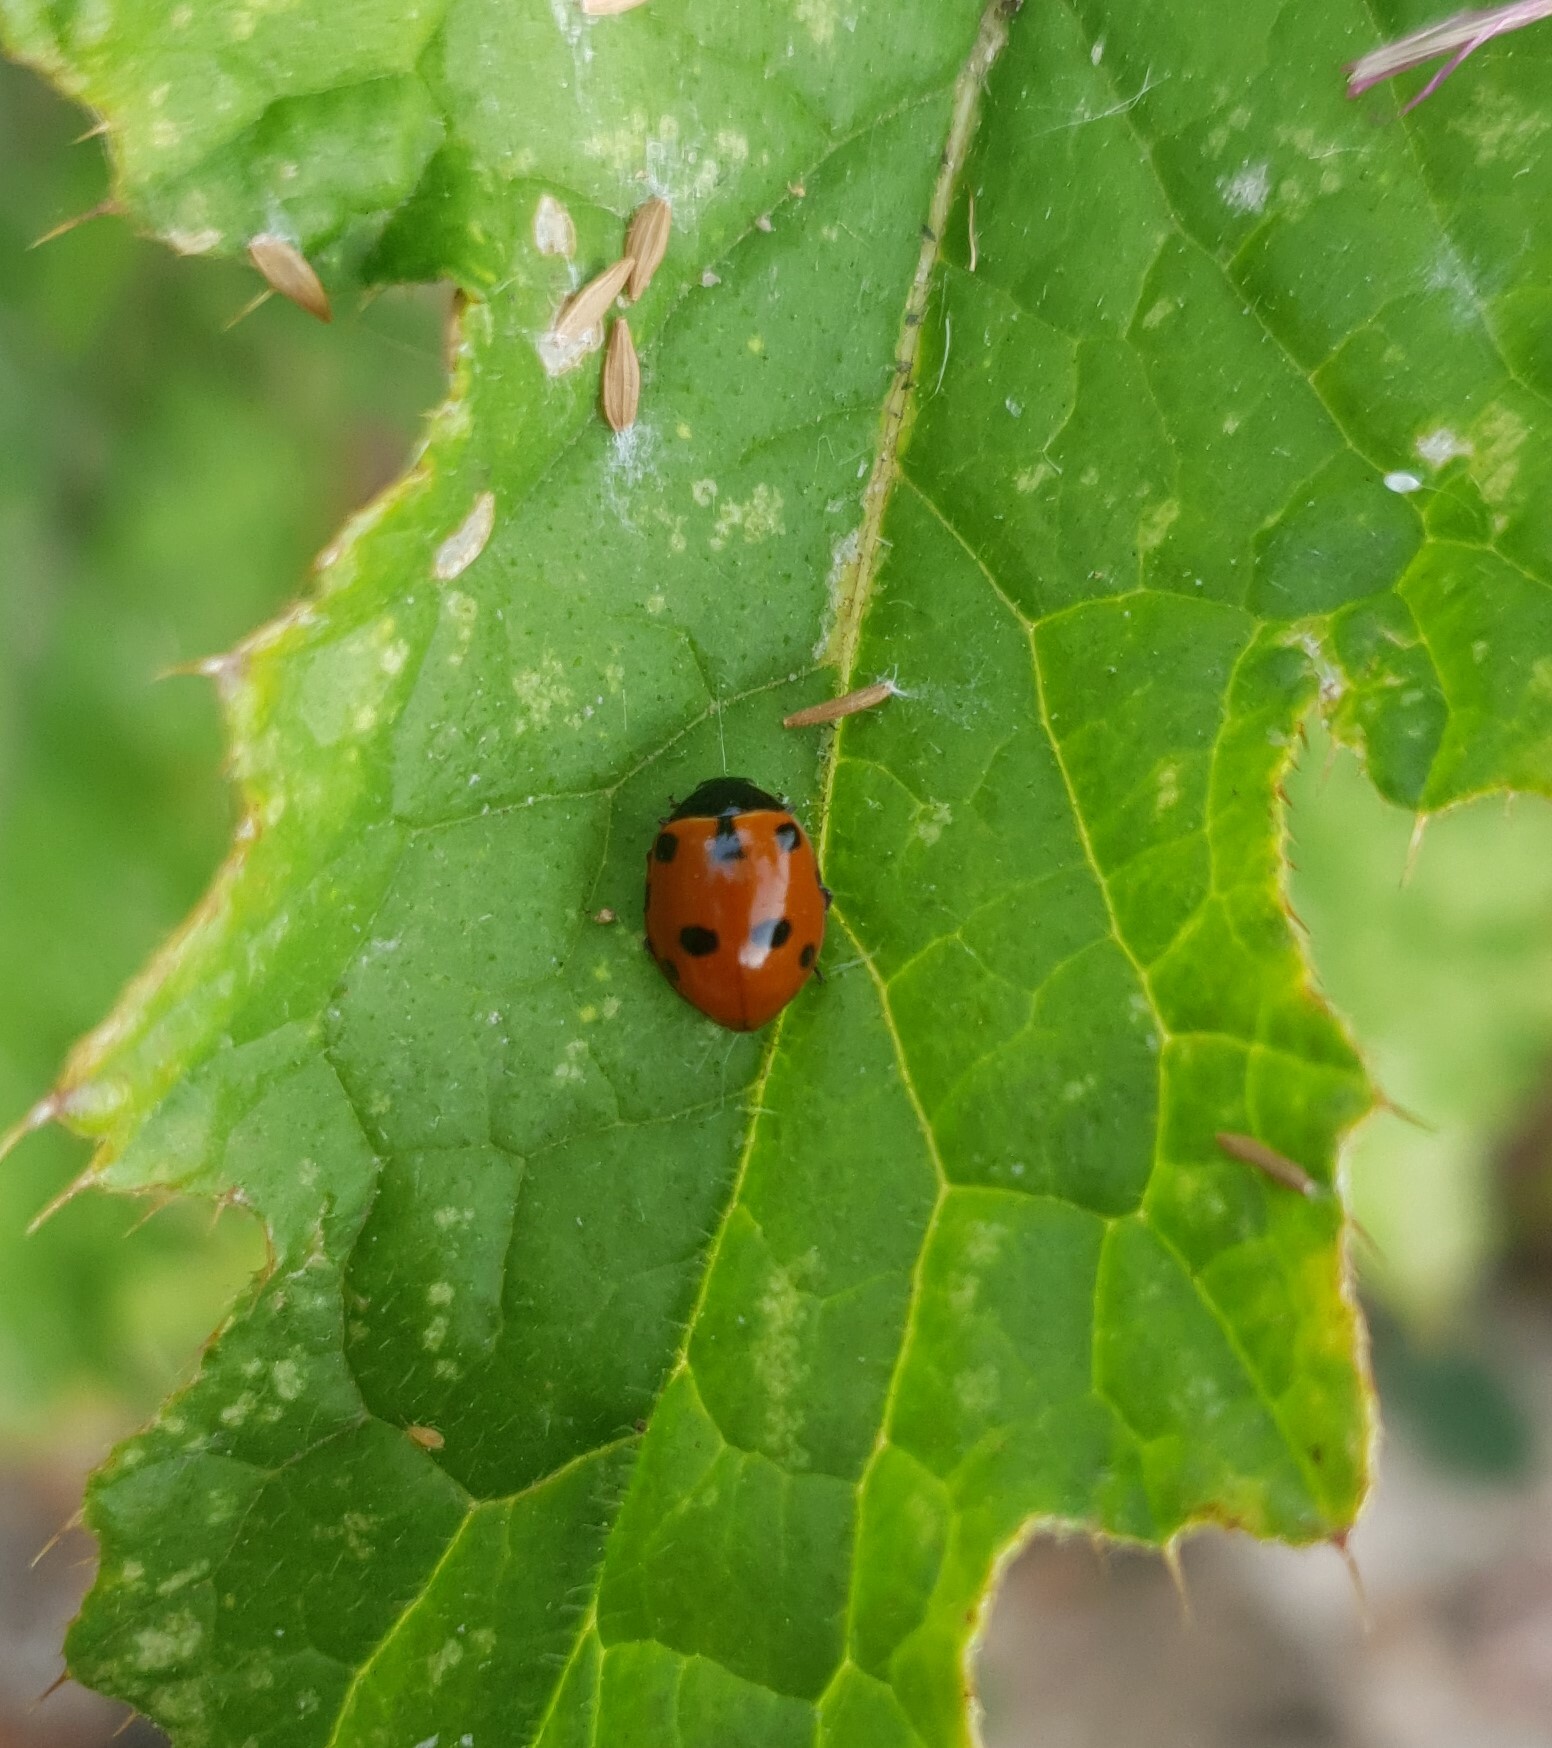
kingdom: Animalia
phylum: Arthropoda
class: Insecta
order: Coleoptera
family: Coccinellidae
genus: Ceratomegilla
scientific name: Ceratomegilla undecimnotata
